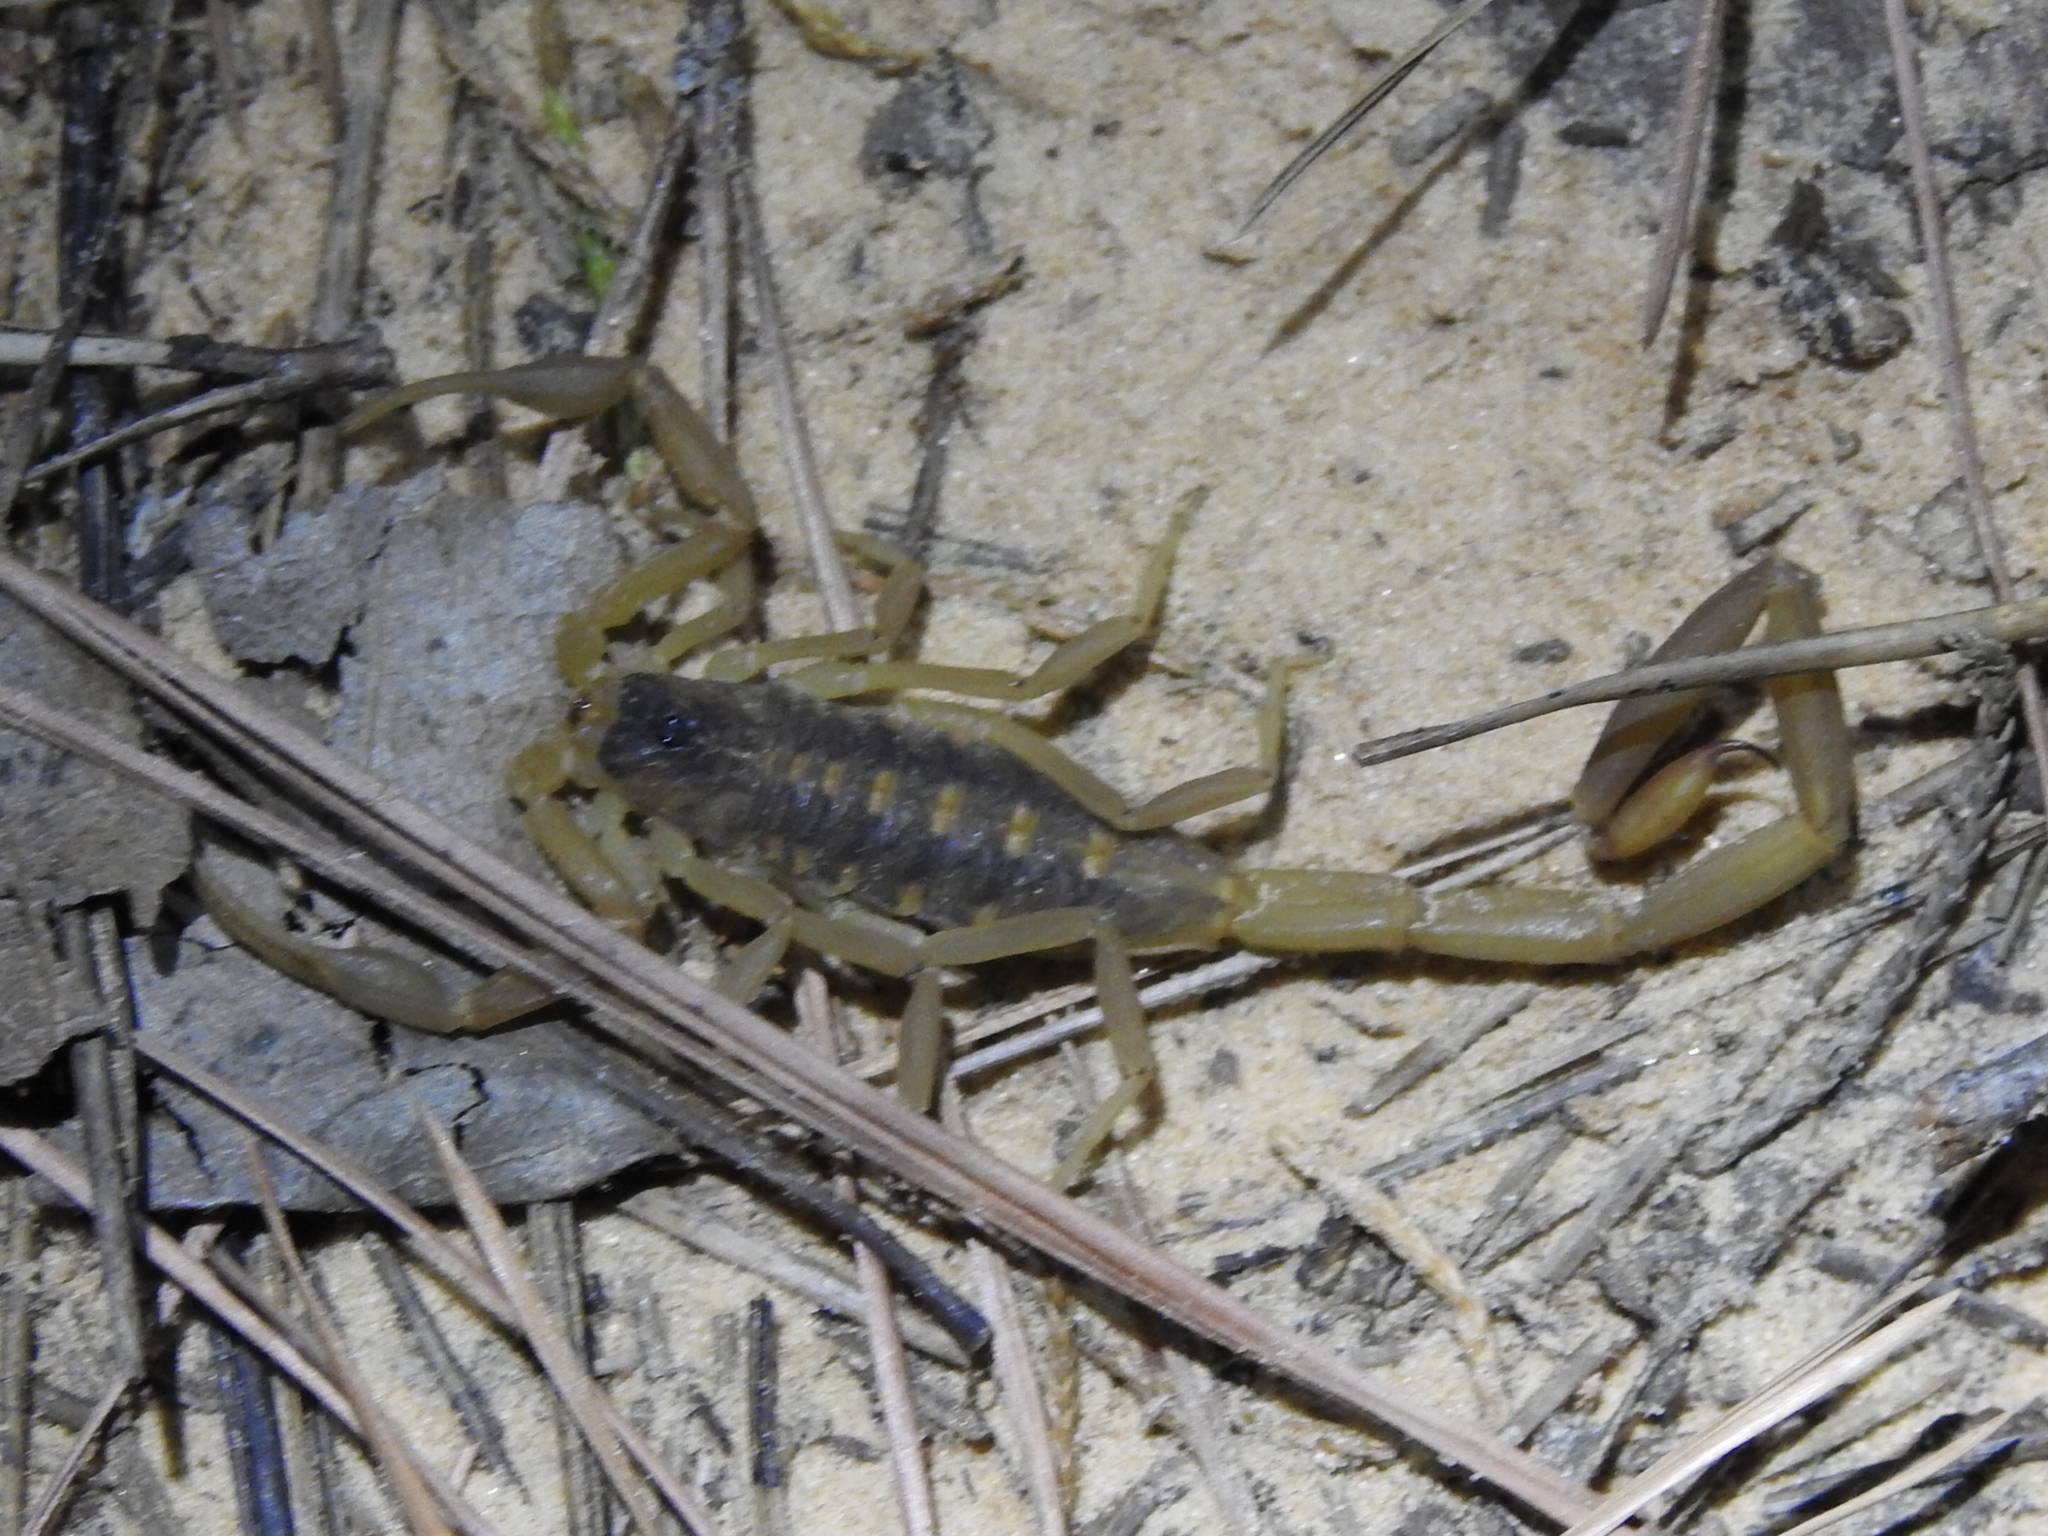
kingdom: Animalia
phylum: Arthropoda
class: Arachnida
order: Scorpiones
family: Buthidae
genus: Centruroides
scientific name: Centruroides vittatus
